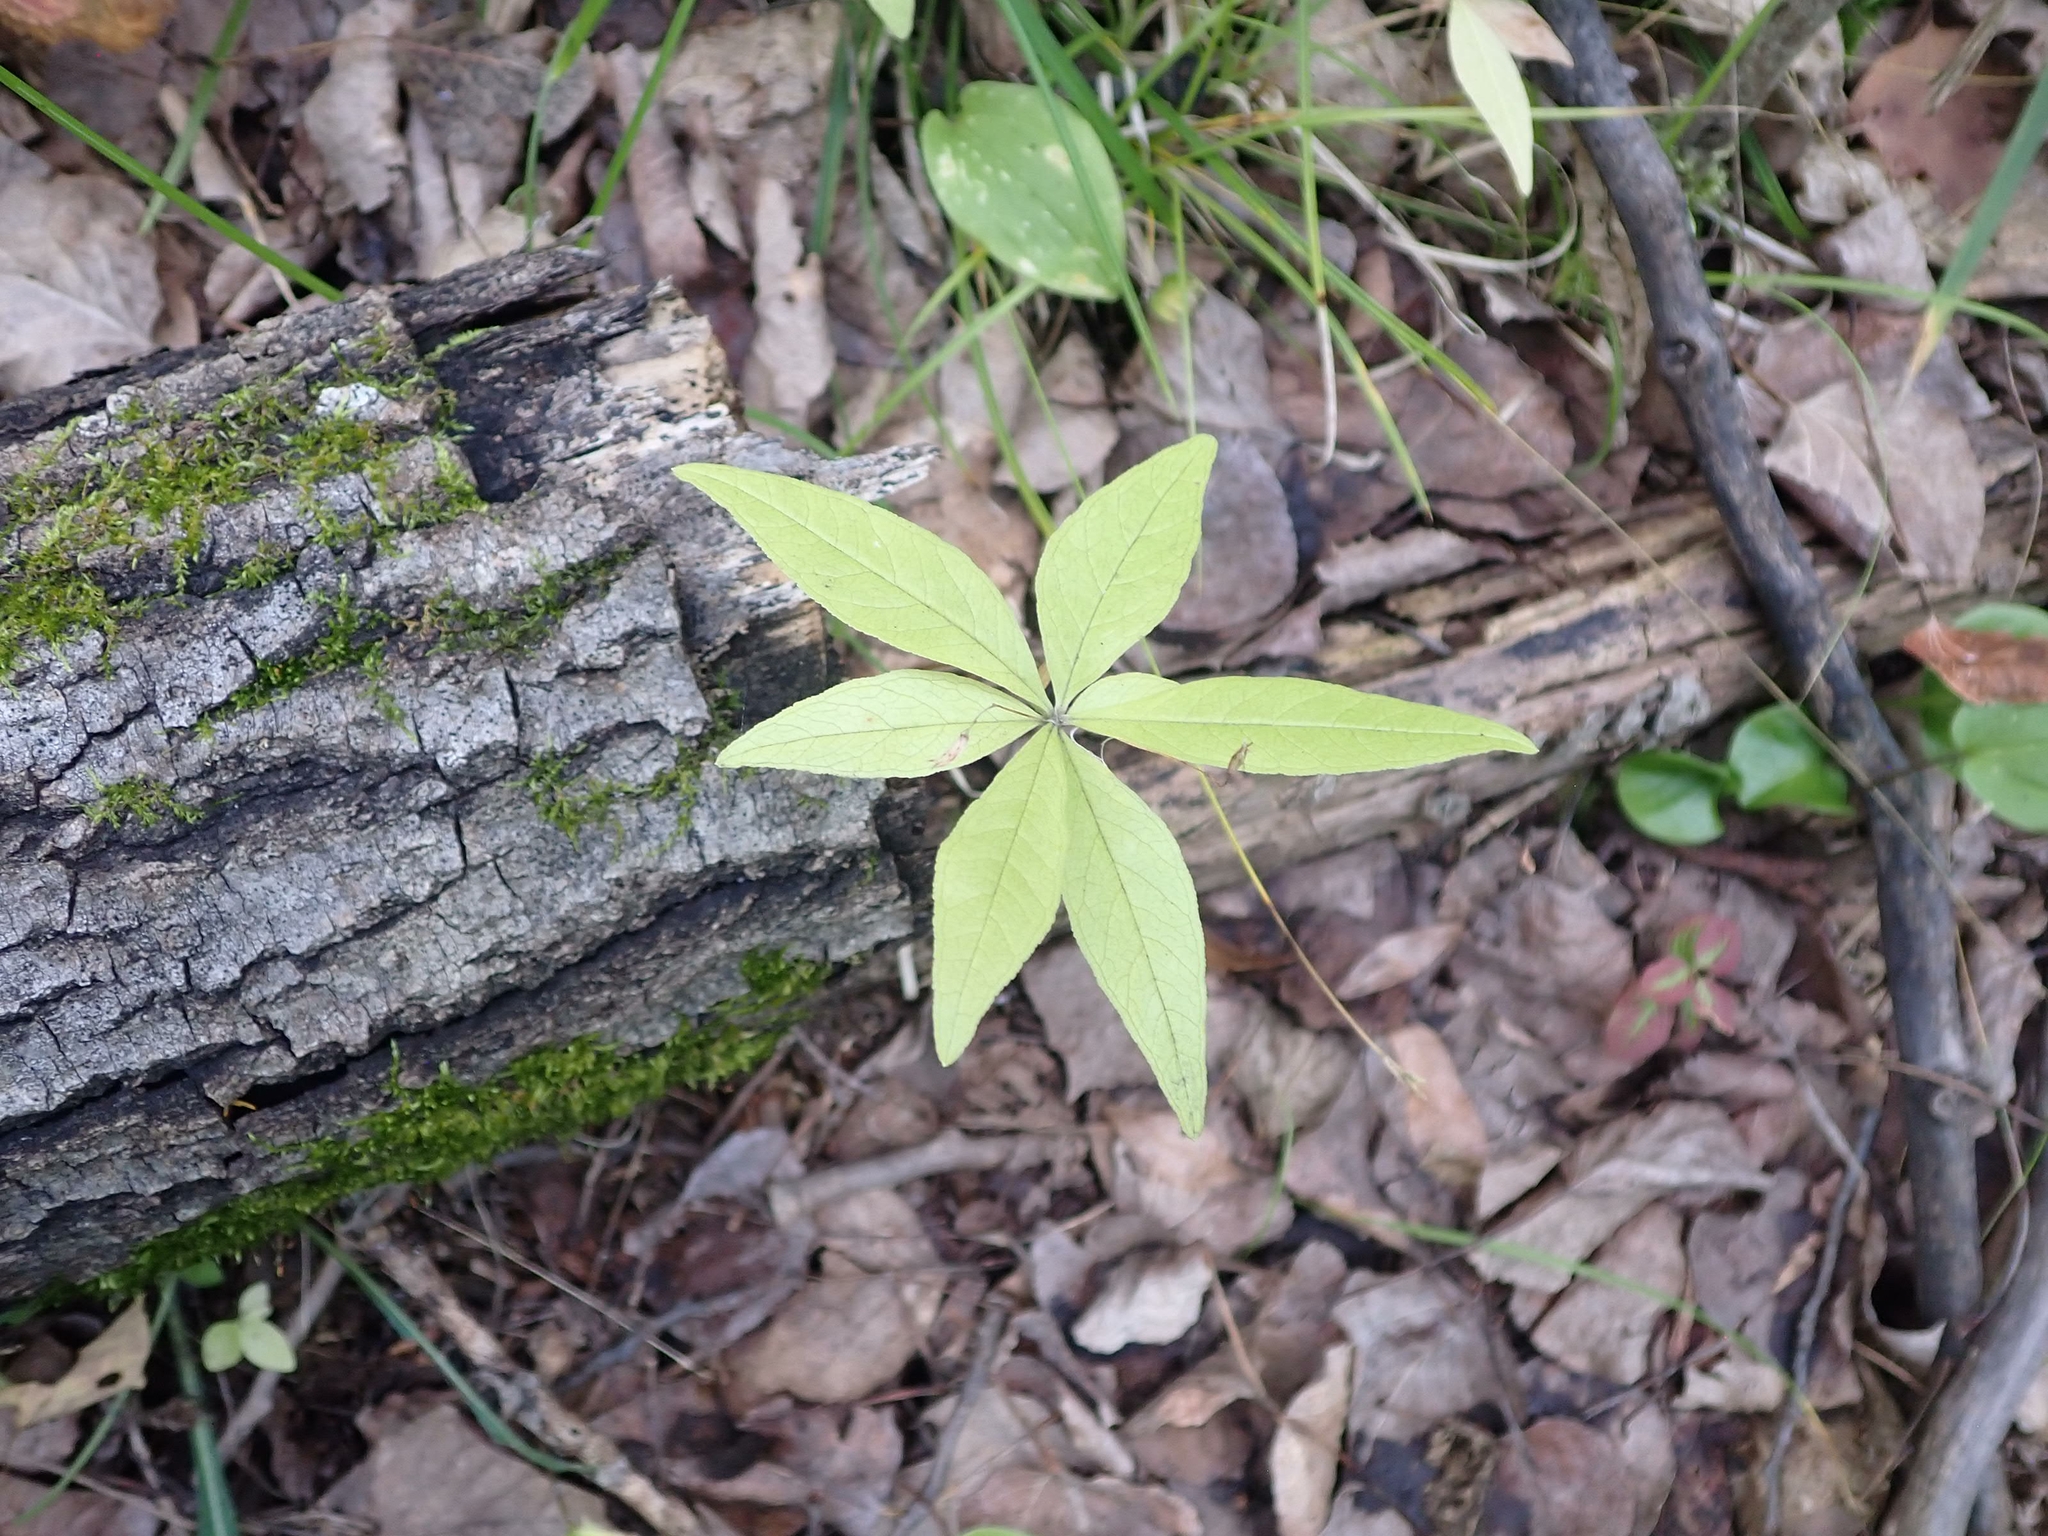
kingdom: Plantae
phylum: Tracheophyta
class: Magnoliopsida
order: Ericales
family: Primulaceae
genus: Lysimachia
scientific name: Lysimachia borealis
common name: American starflower
